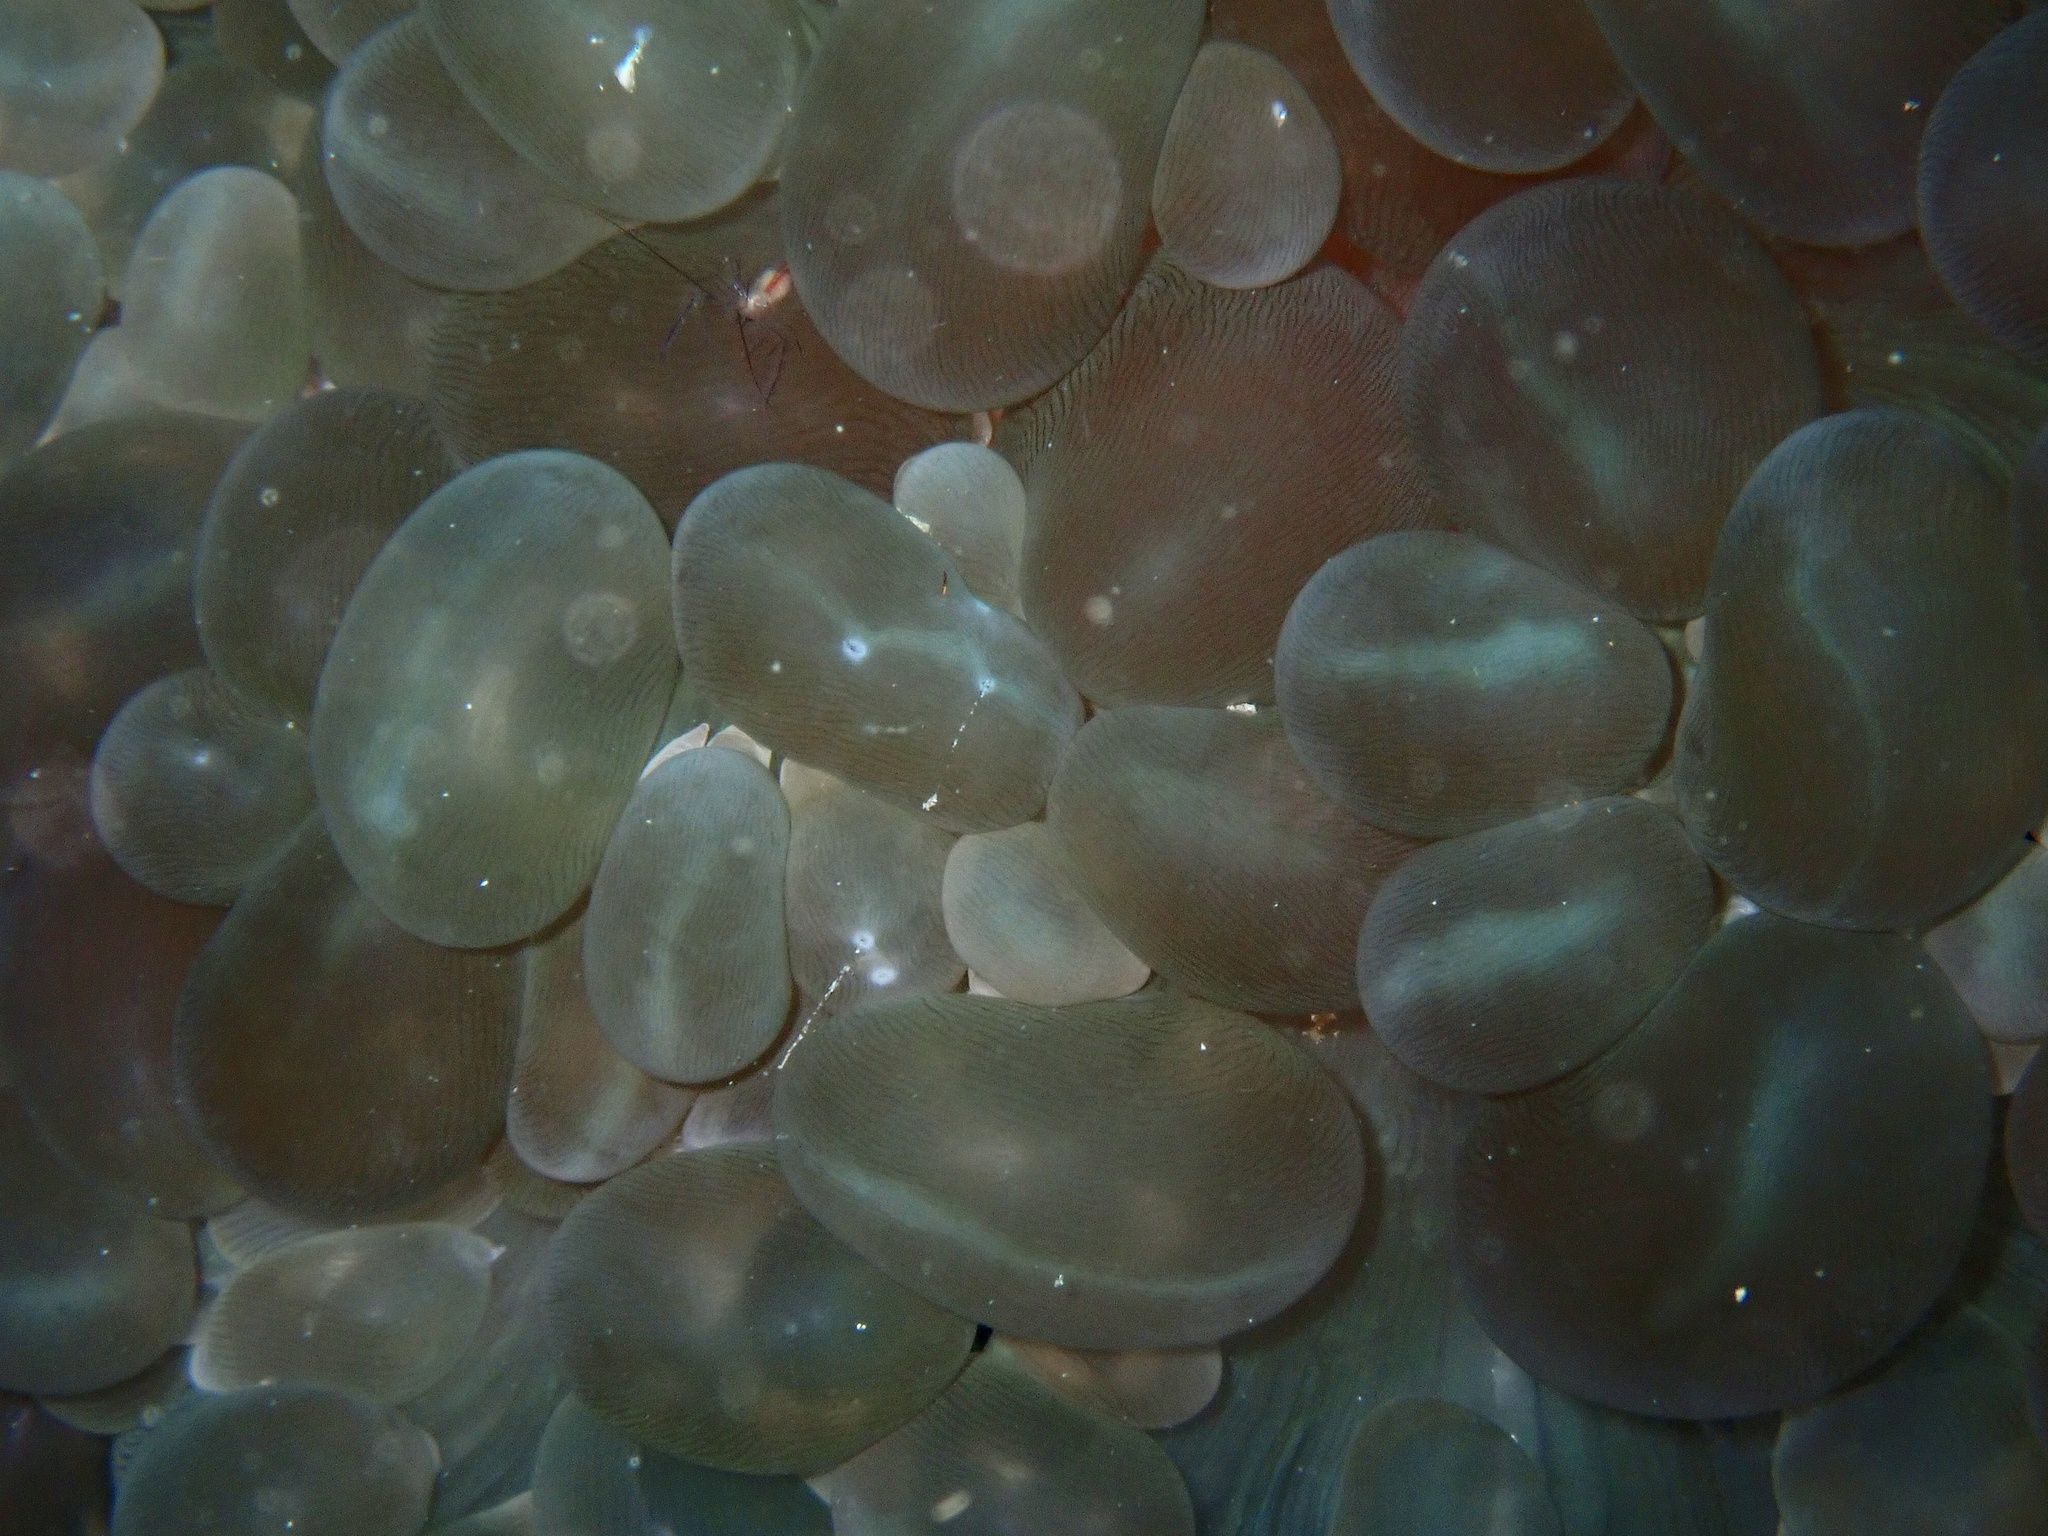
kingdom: Animalia
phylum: Cnidaria
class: Anthozoa
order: Scleractinia
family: Plerogyridae
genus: Plerogyra
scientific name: Plerogyra sinuosa
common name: Bubble coral
